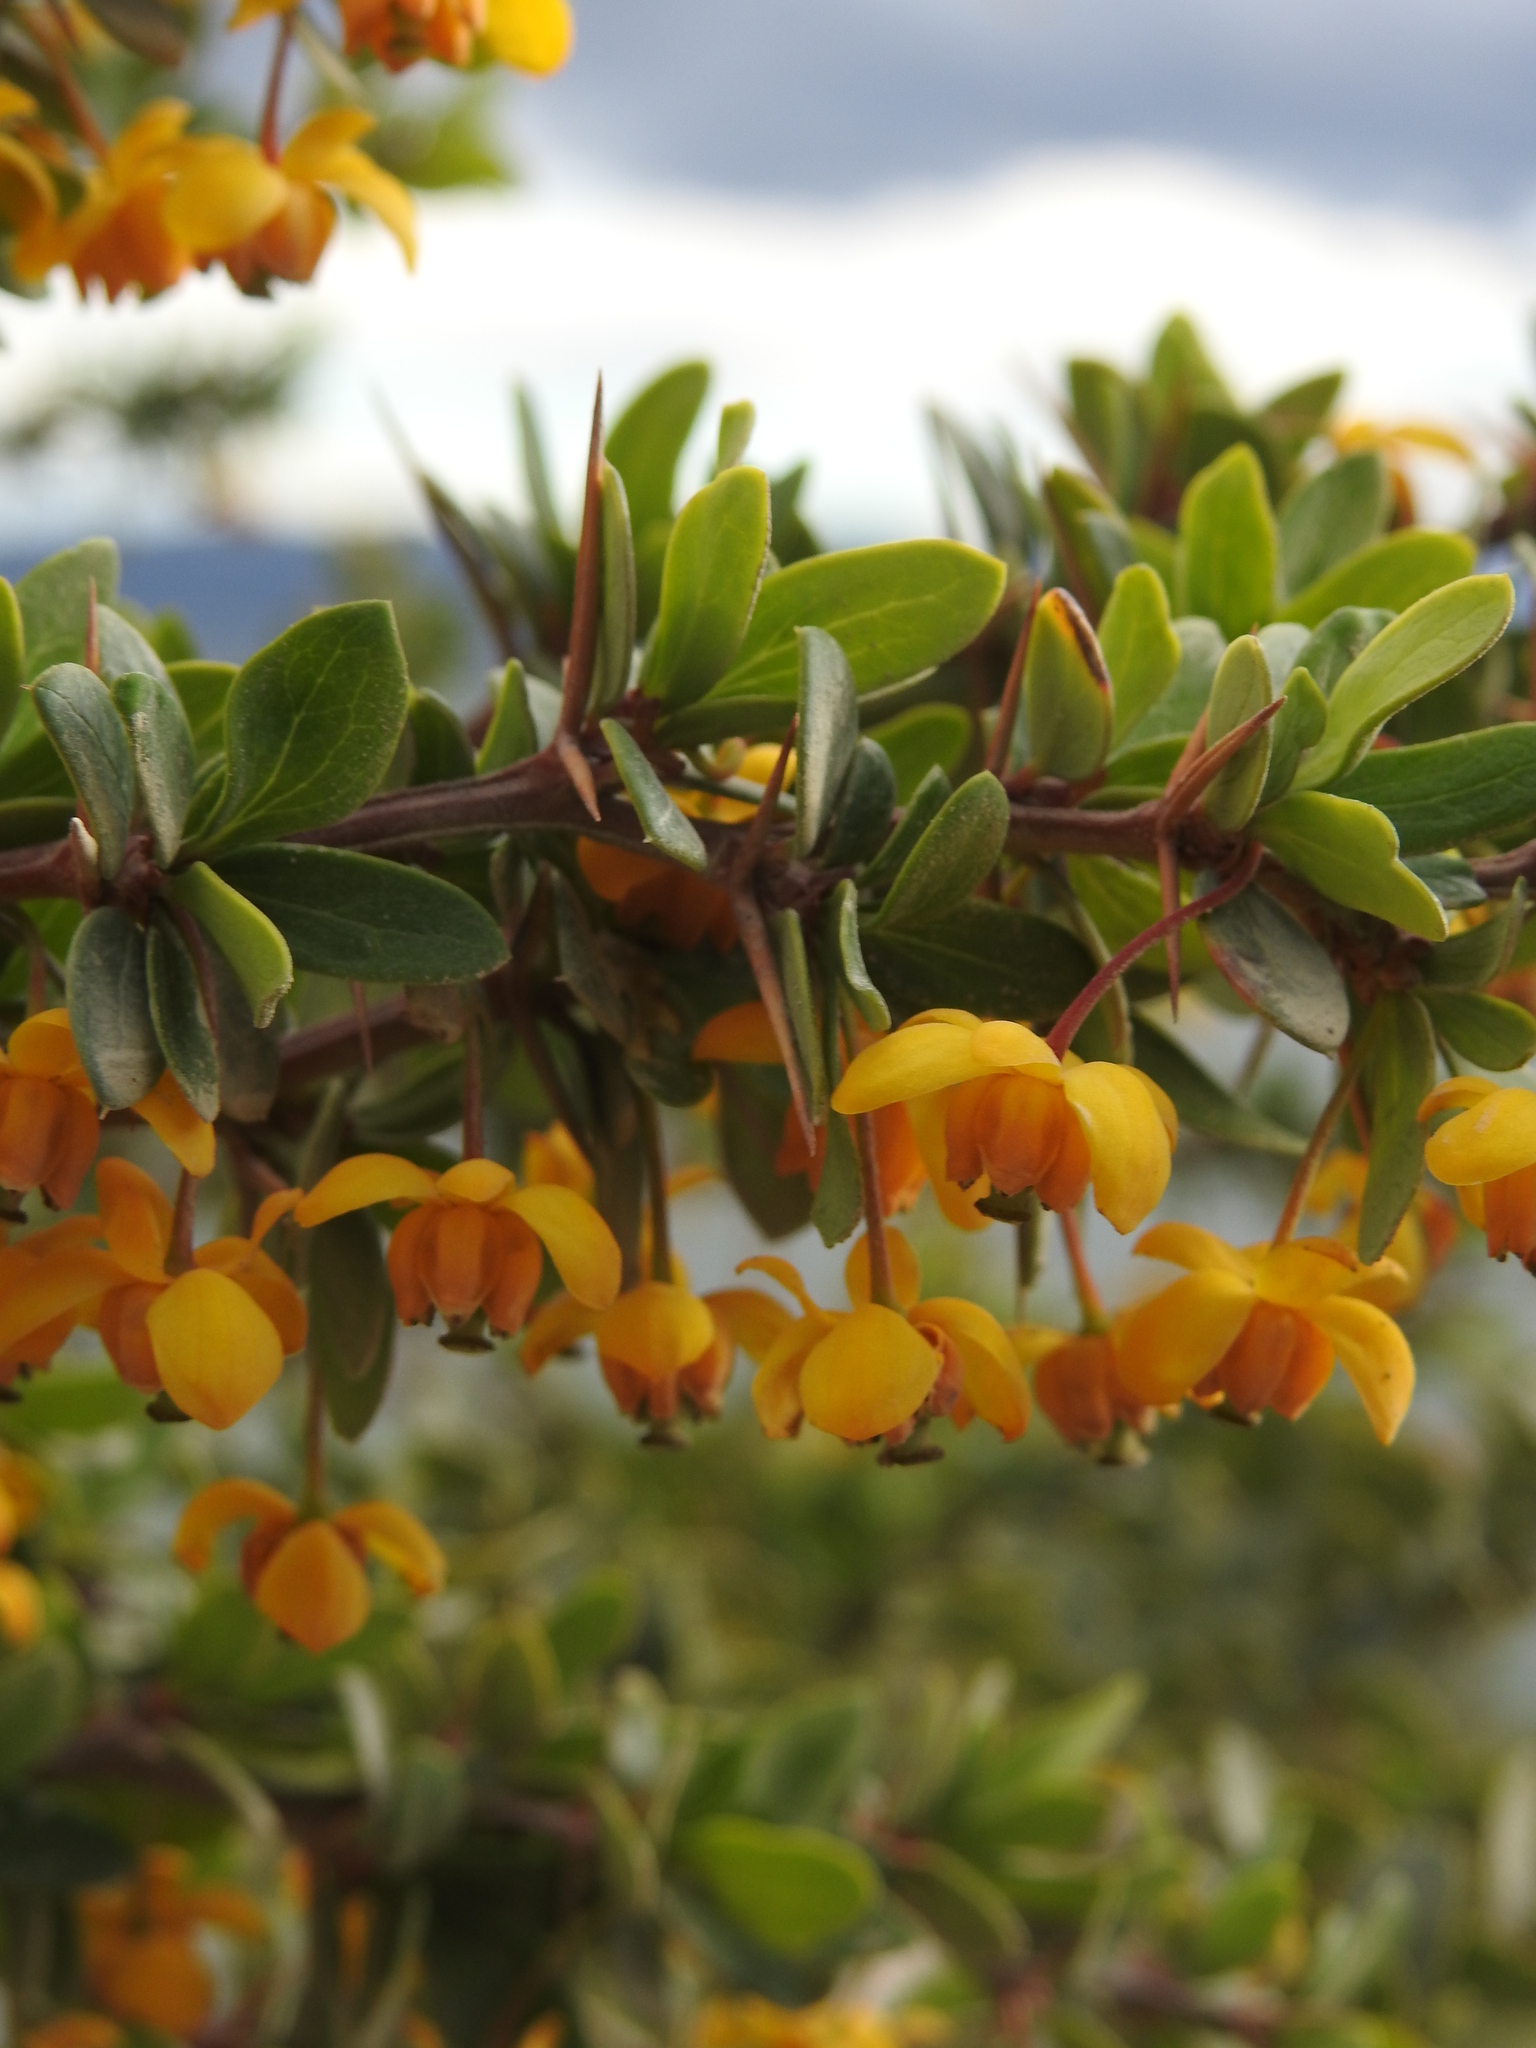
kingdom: Plantae
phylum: Tracheophyta
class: Magnoliopsida
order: Ranunculales
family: Berberidaceae
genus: Berberis
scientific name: Berberis microphylla
